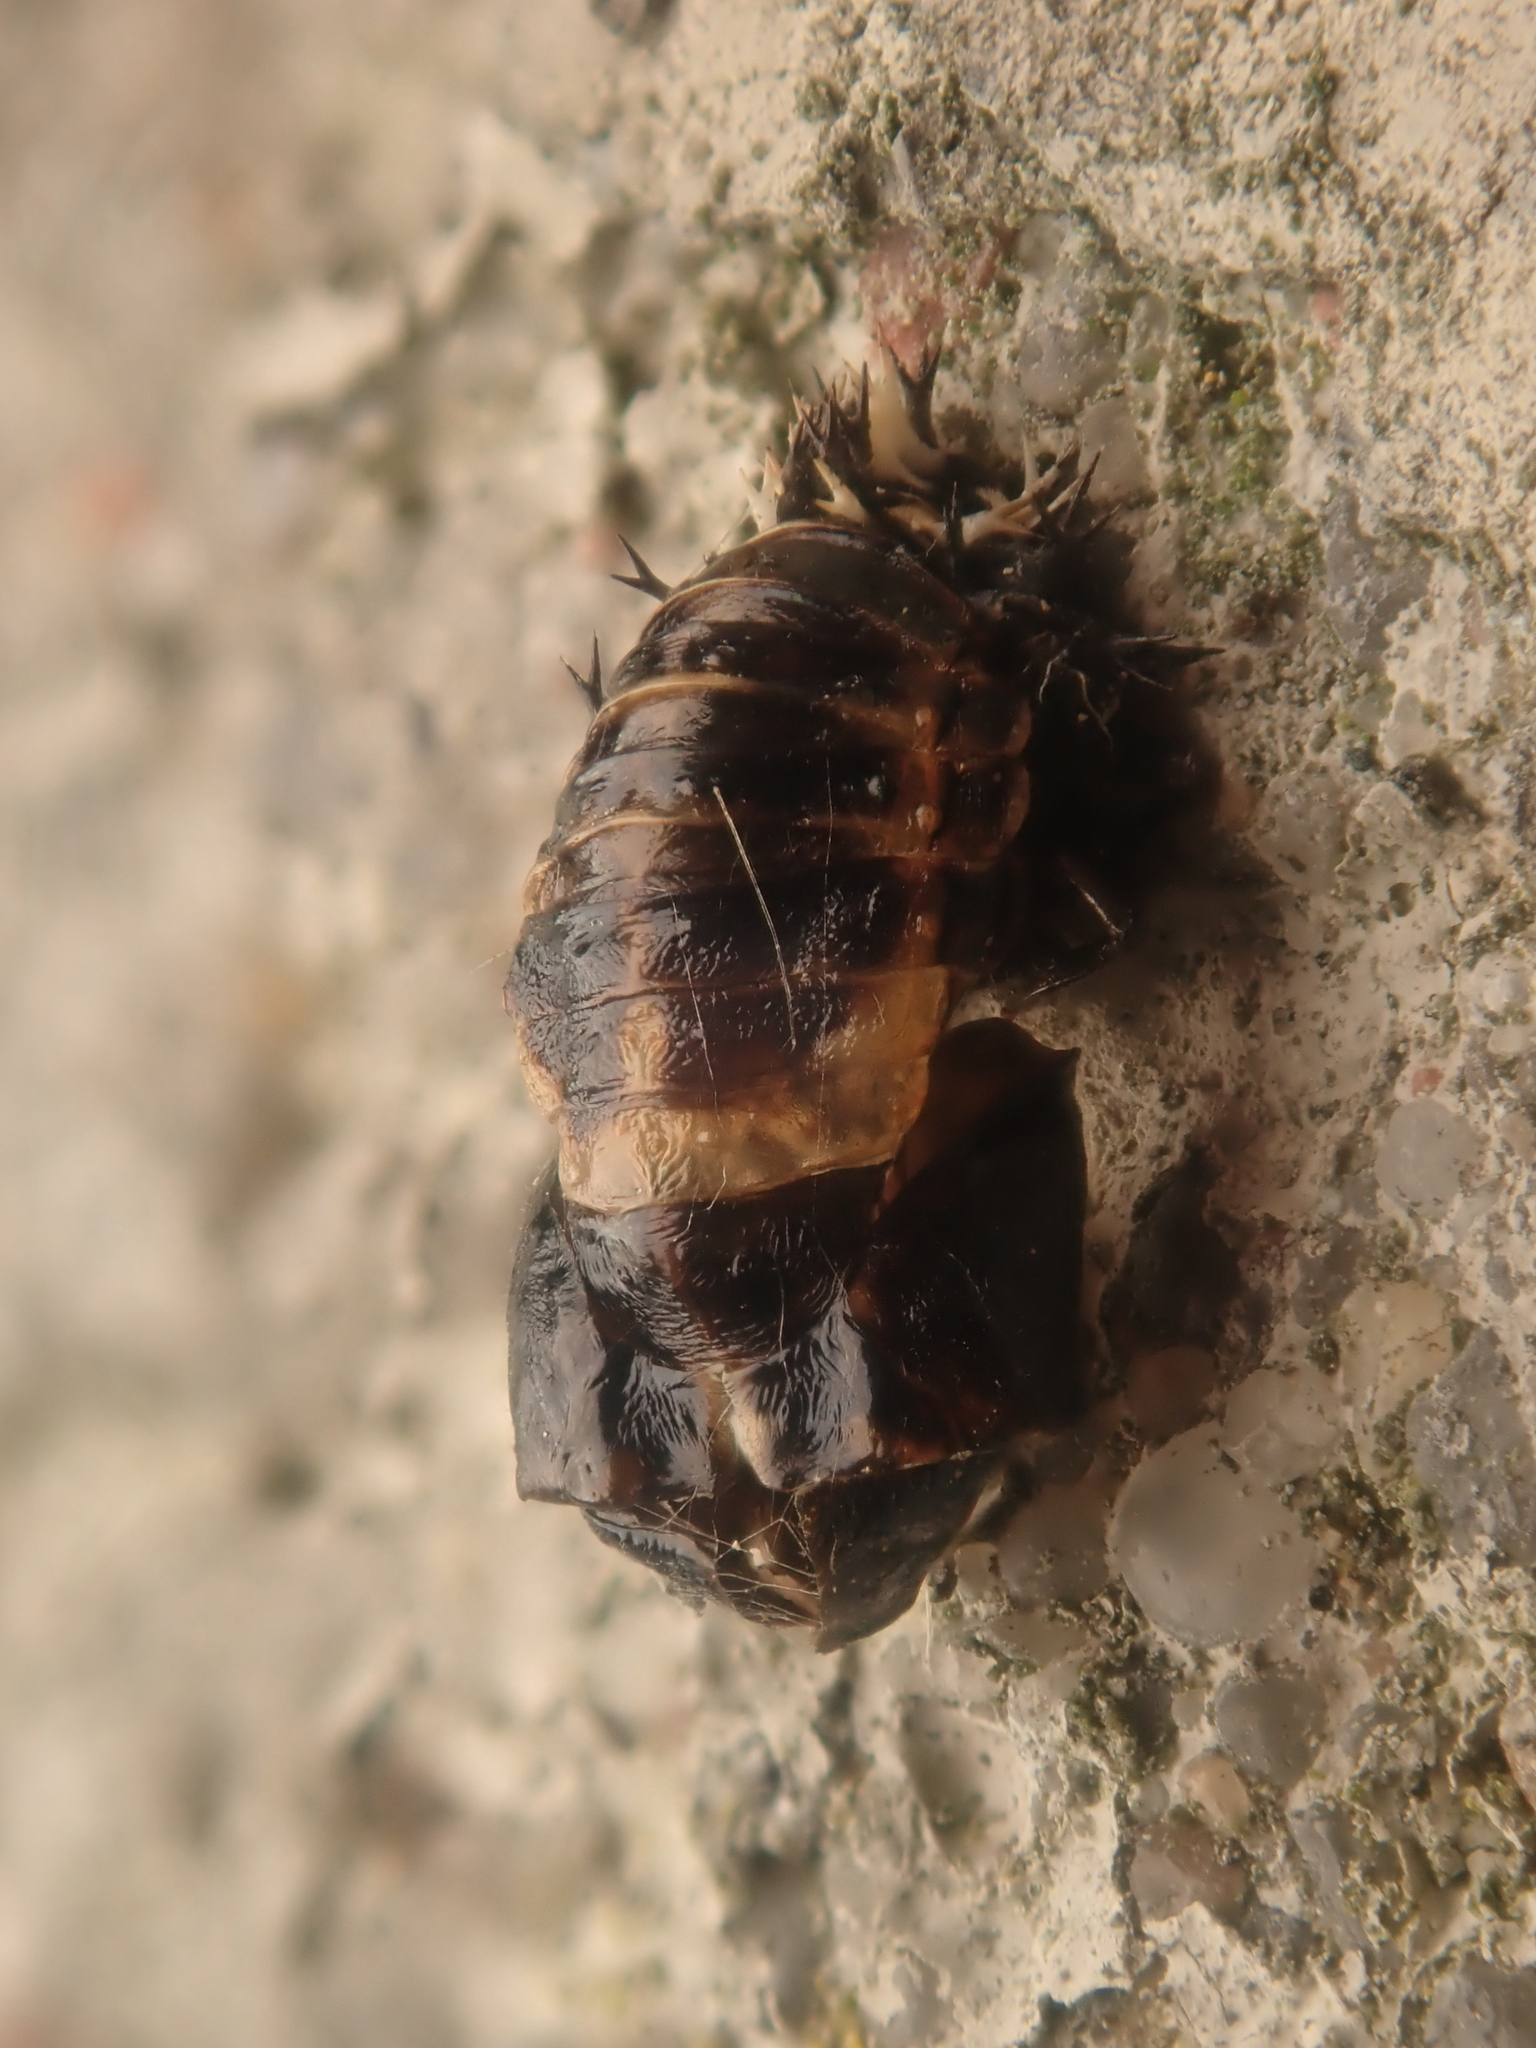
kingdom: Animalia
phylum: Arthropoda
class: Insecta
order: Coleoptera
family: Coccinellidae
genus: Harmonia
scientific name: Harmonia axyridis
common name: Harlequin ladybird
